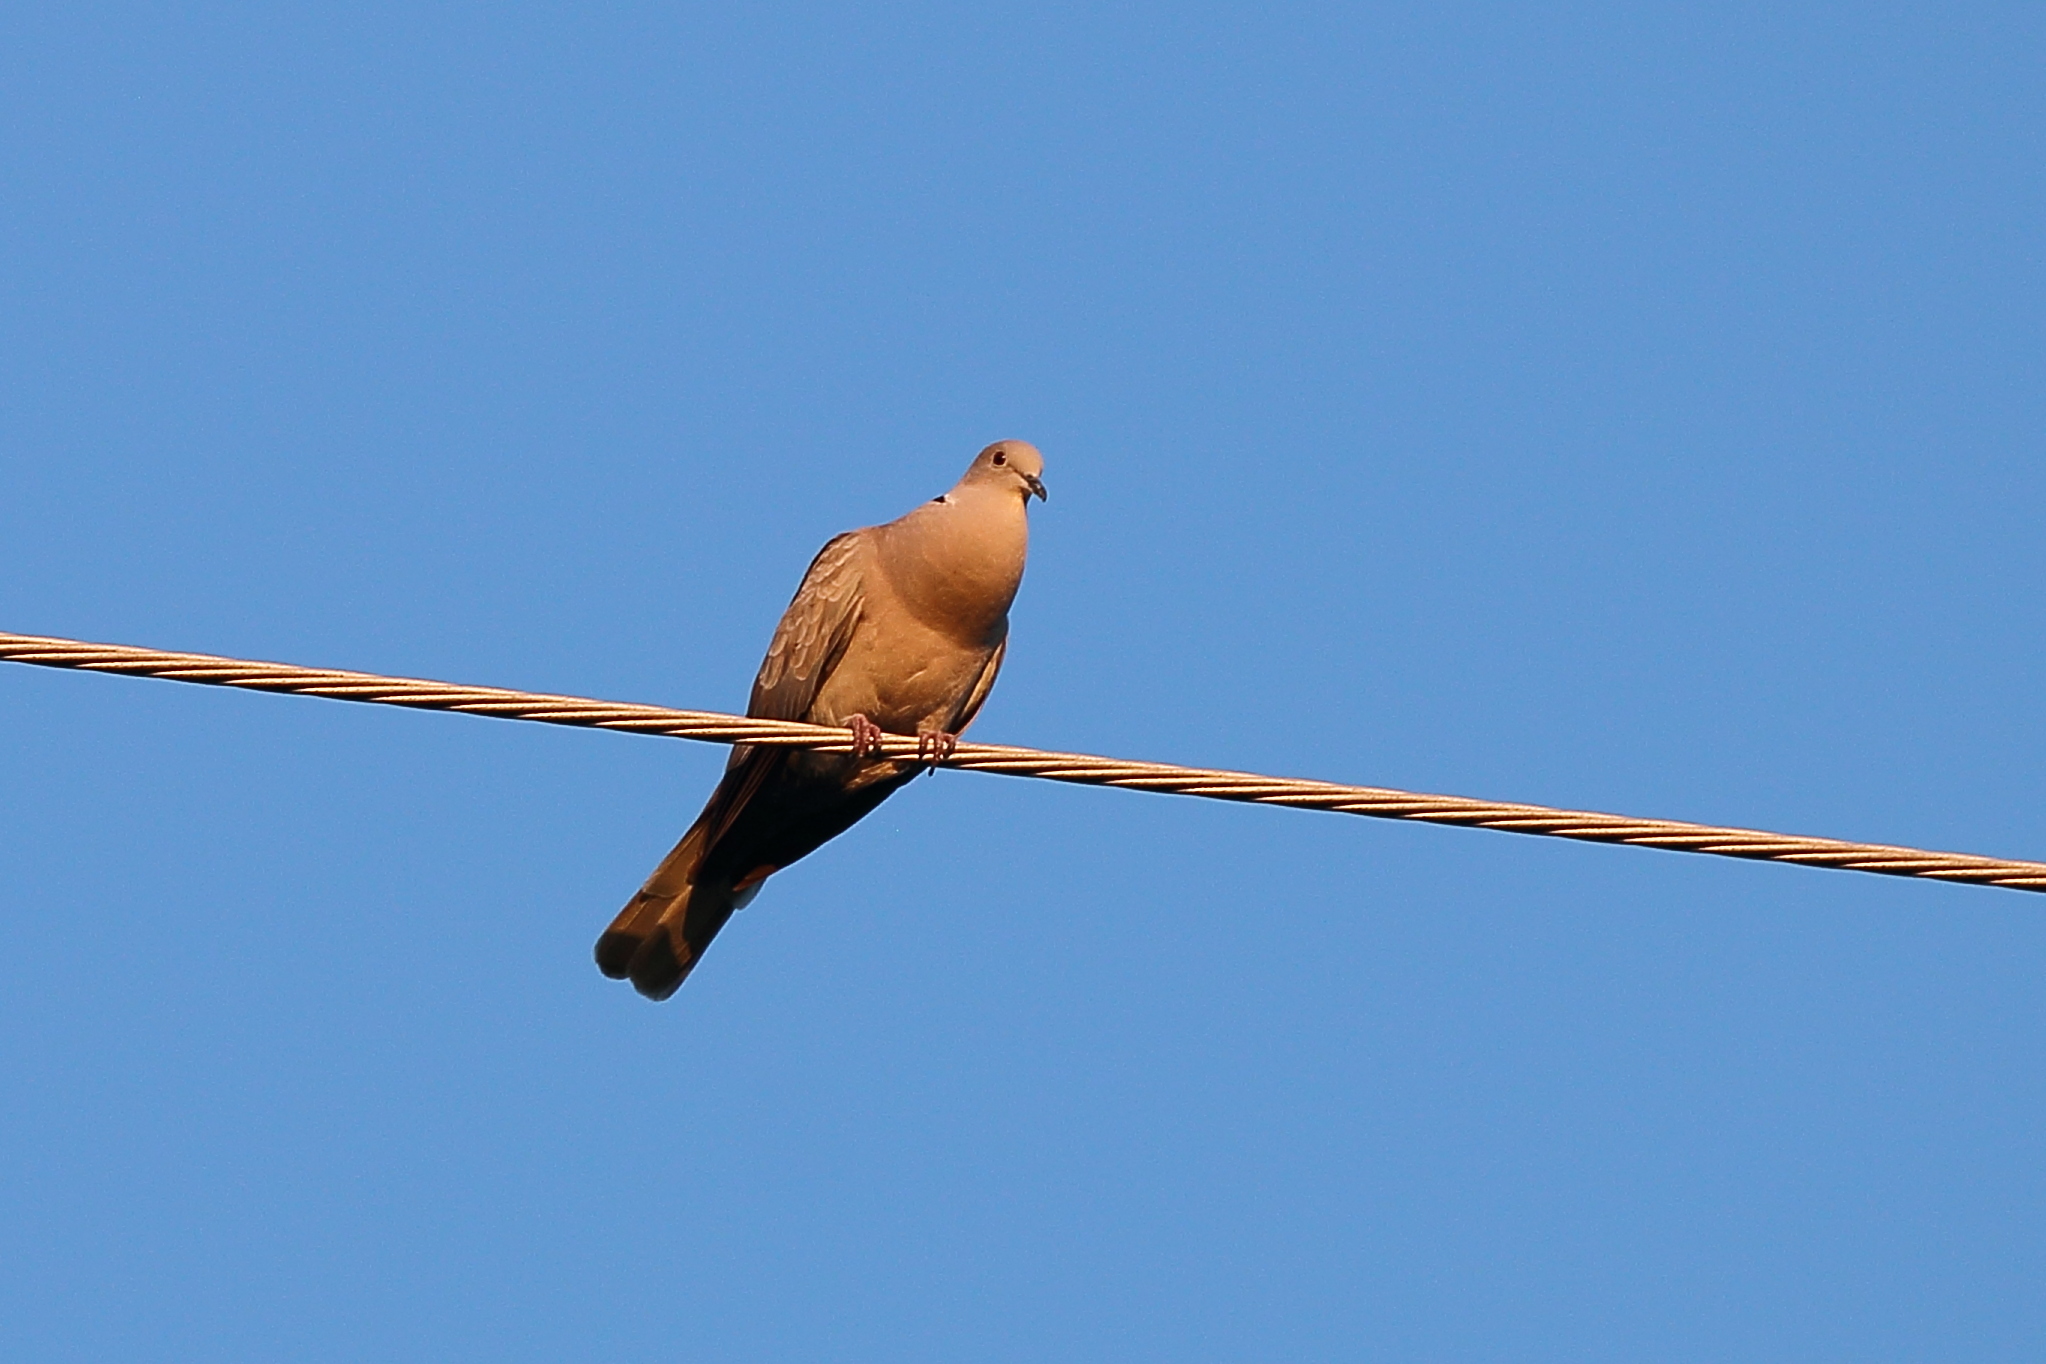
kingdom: Animalia
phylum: Chordata
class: Aves
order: Columbiformes
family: Columbidae
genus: Streptopelia
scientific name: Streptopelia decaocto
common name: Eurasian collared dove
